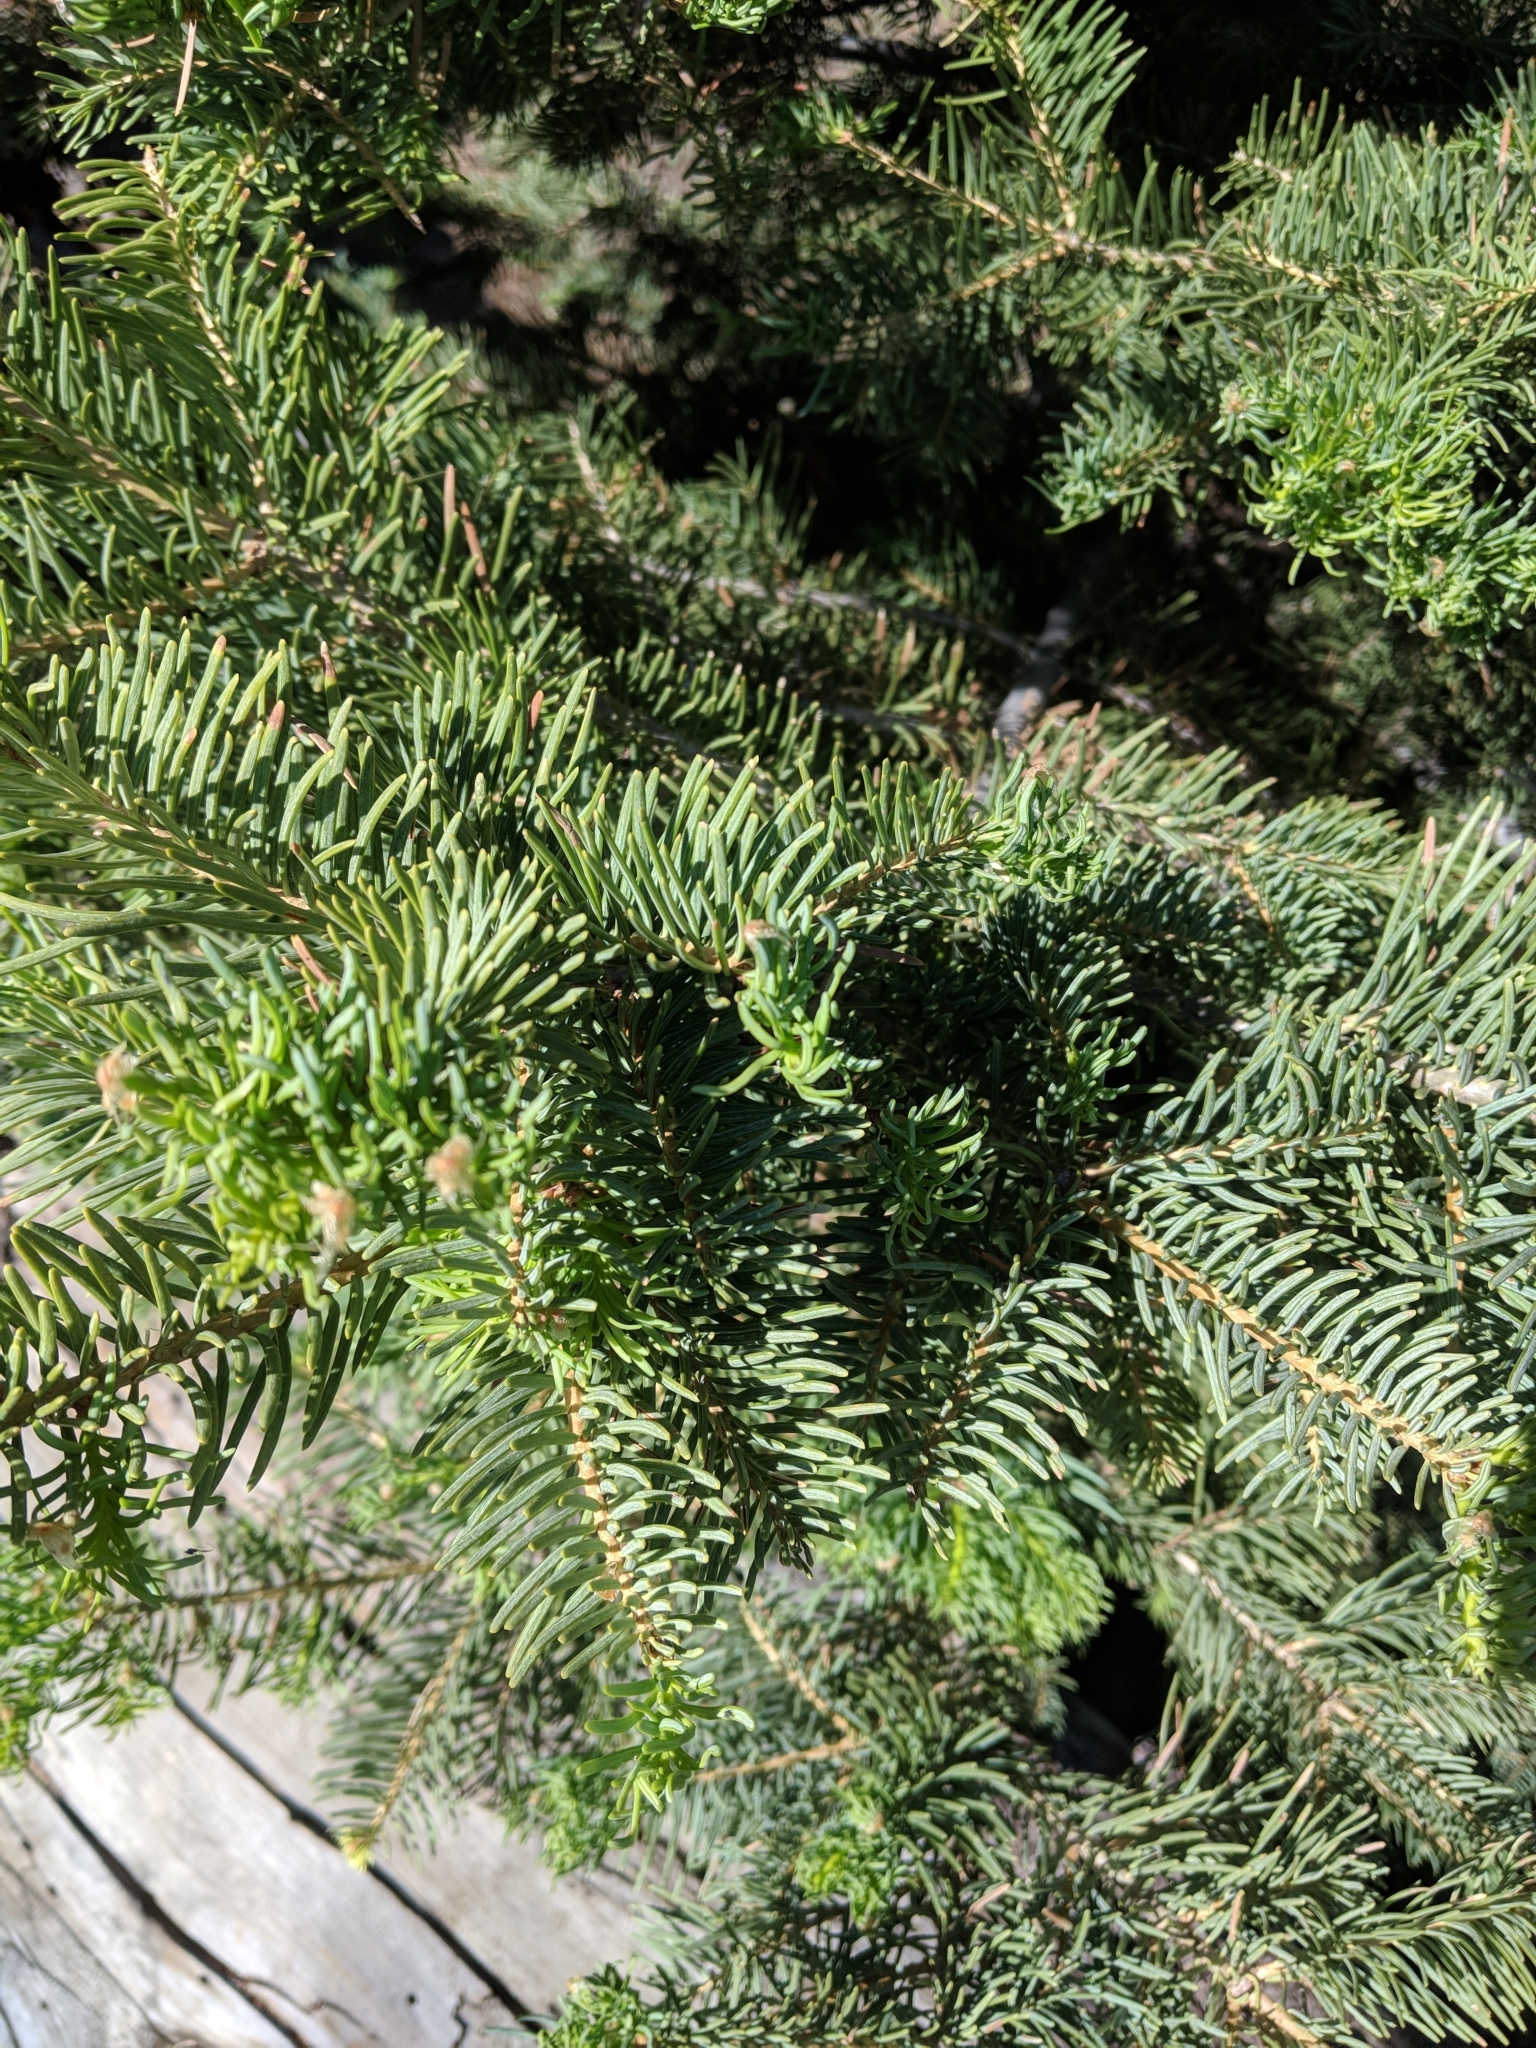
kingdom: Plantae
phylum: Tracheophyta
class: Pinopsida
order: Pinales
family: Pinaceae
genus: Abies
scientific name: Abies concolor
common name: Colorado fir
